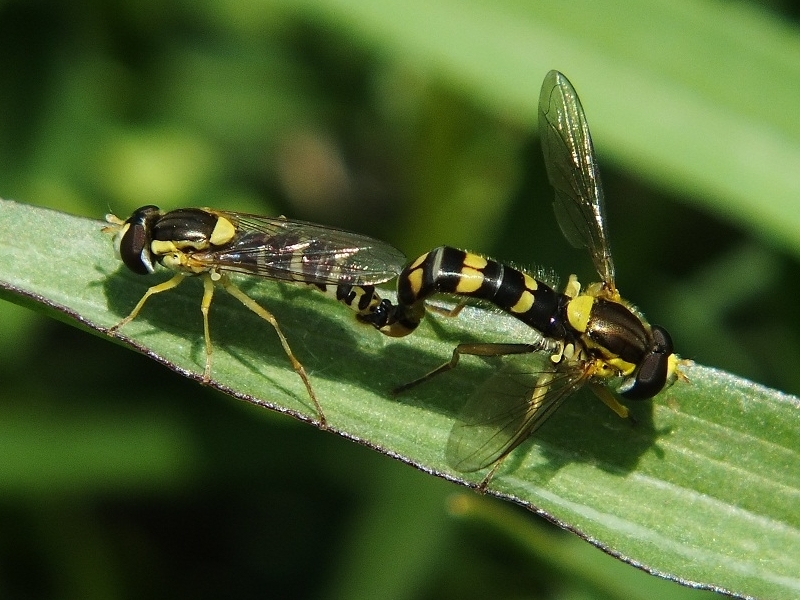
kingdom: Animalia
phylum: Arthropoda
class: Insecta
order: Diptera
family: Syrphidae
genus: Sphaerophoria
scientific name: Sphaerophoria scripta
